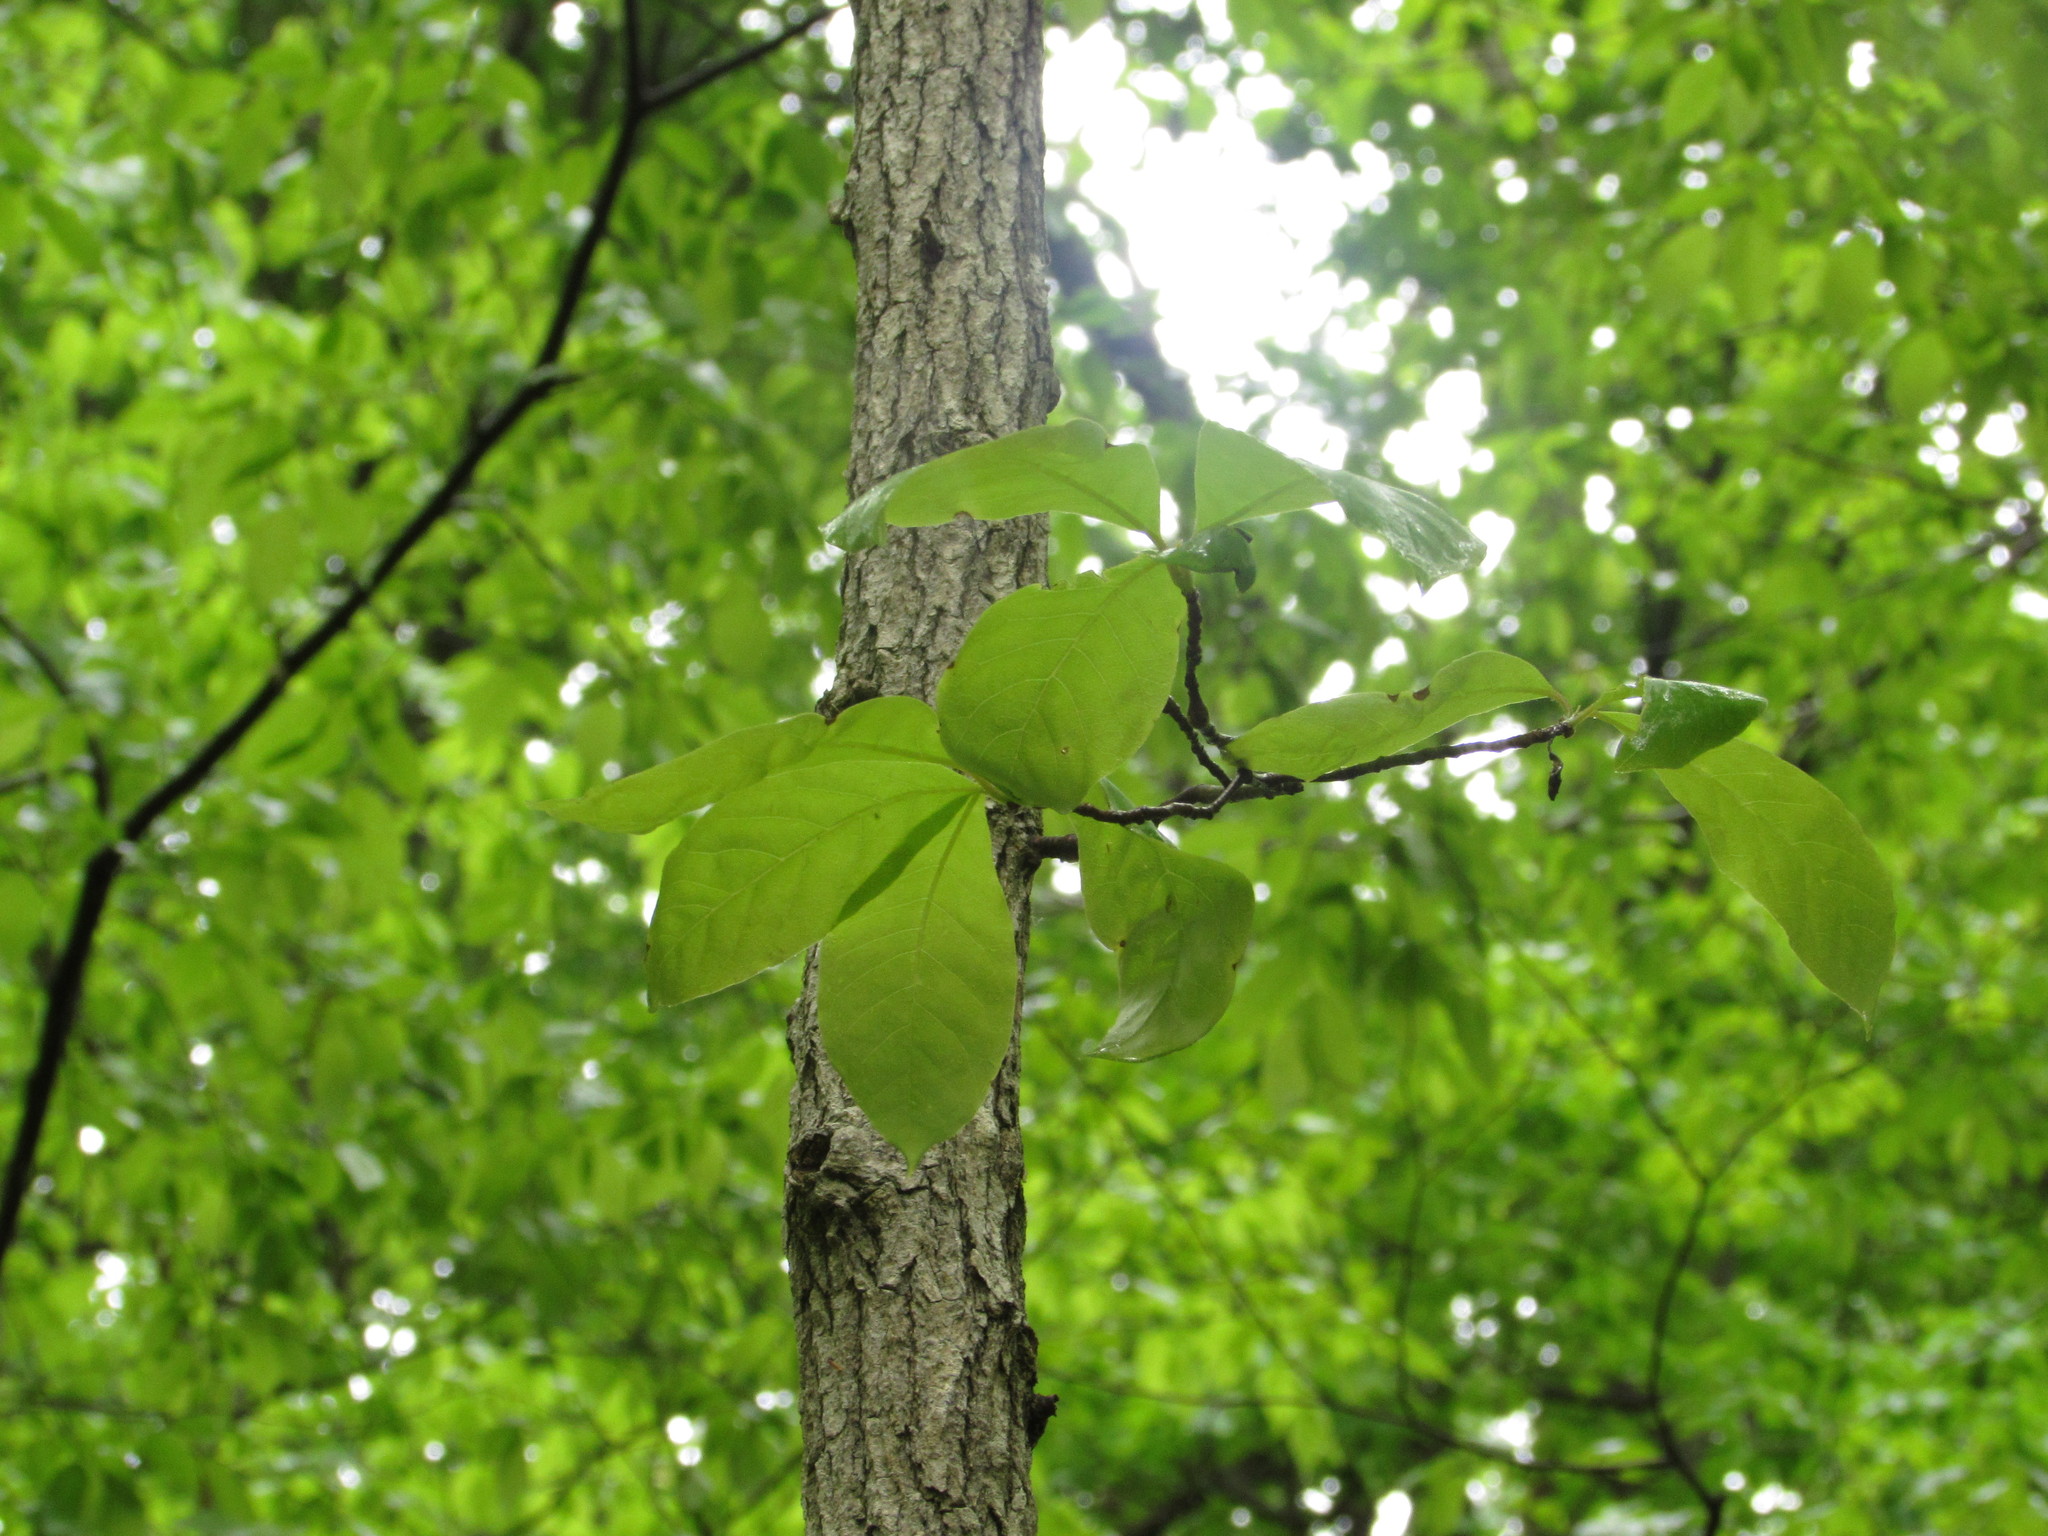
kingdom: Plantae
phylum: Tracheophyta
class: Magnoliopsida
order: Cornales
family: Nyssaceae
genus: Nyssa
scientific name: Nyssa sylvatica
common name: Black tupelo
